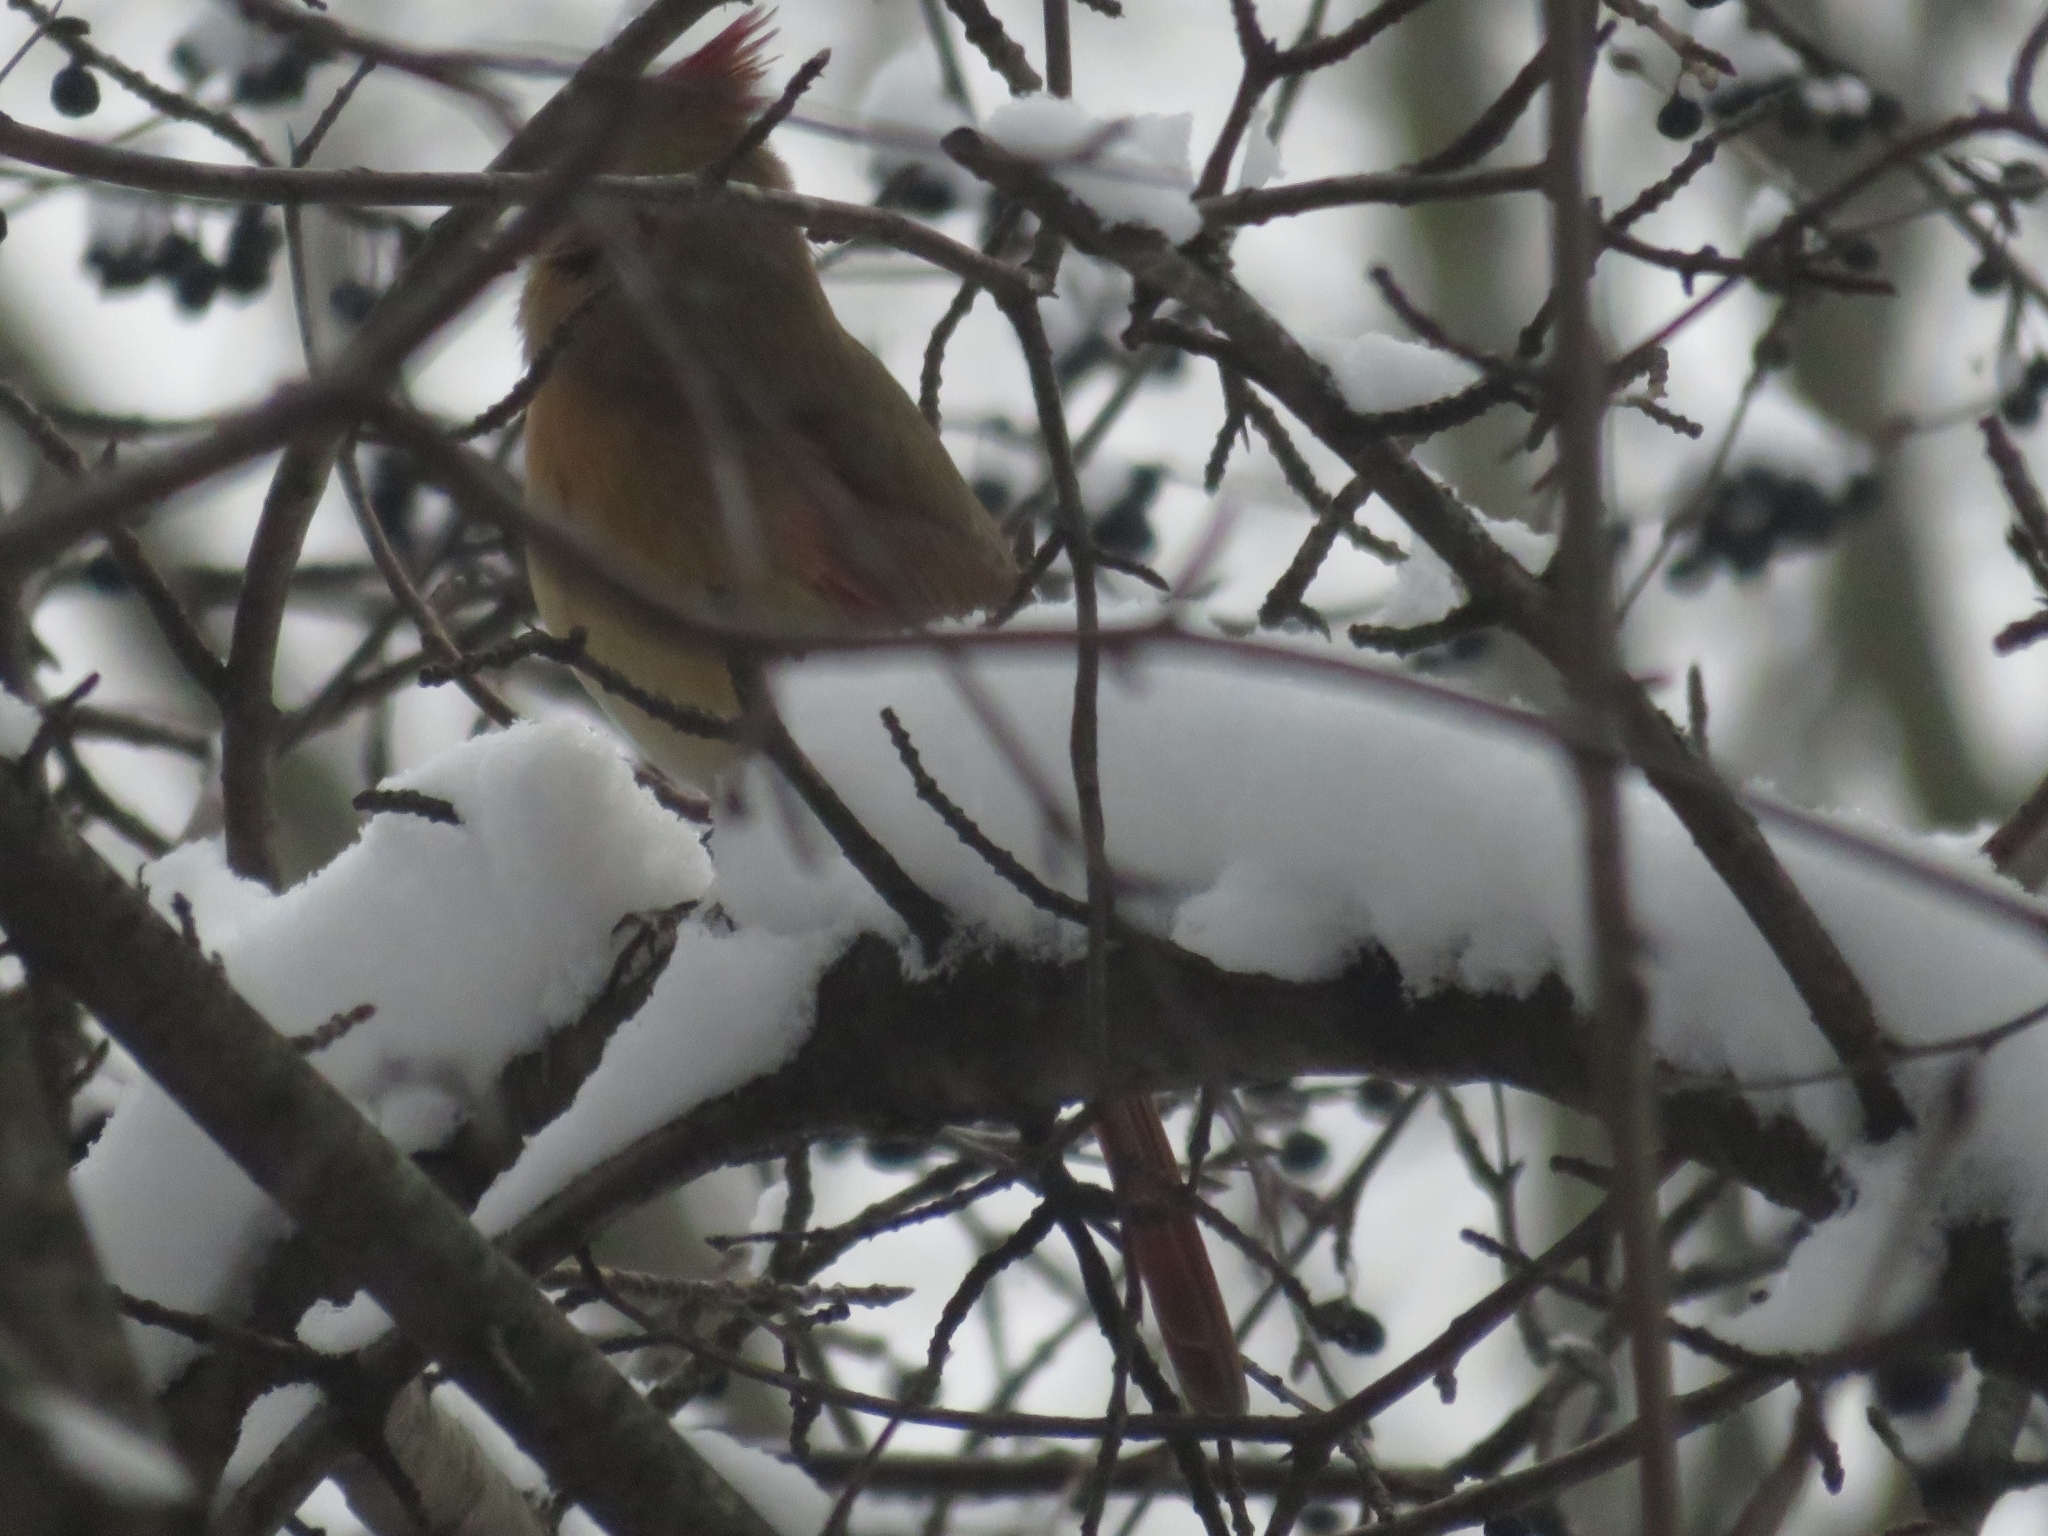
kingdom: Animalia
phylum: Chordata
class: Aves
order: Passeriformes
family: Cardinalidae
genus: Cardinalis
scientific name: Cardinalis cardinalis
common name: Northern cardinal
